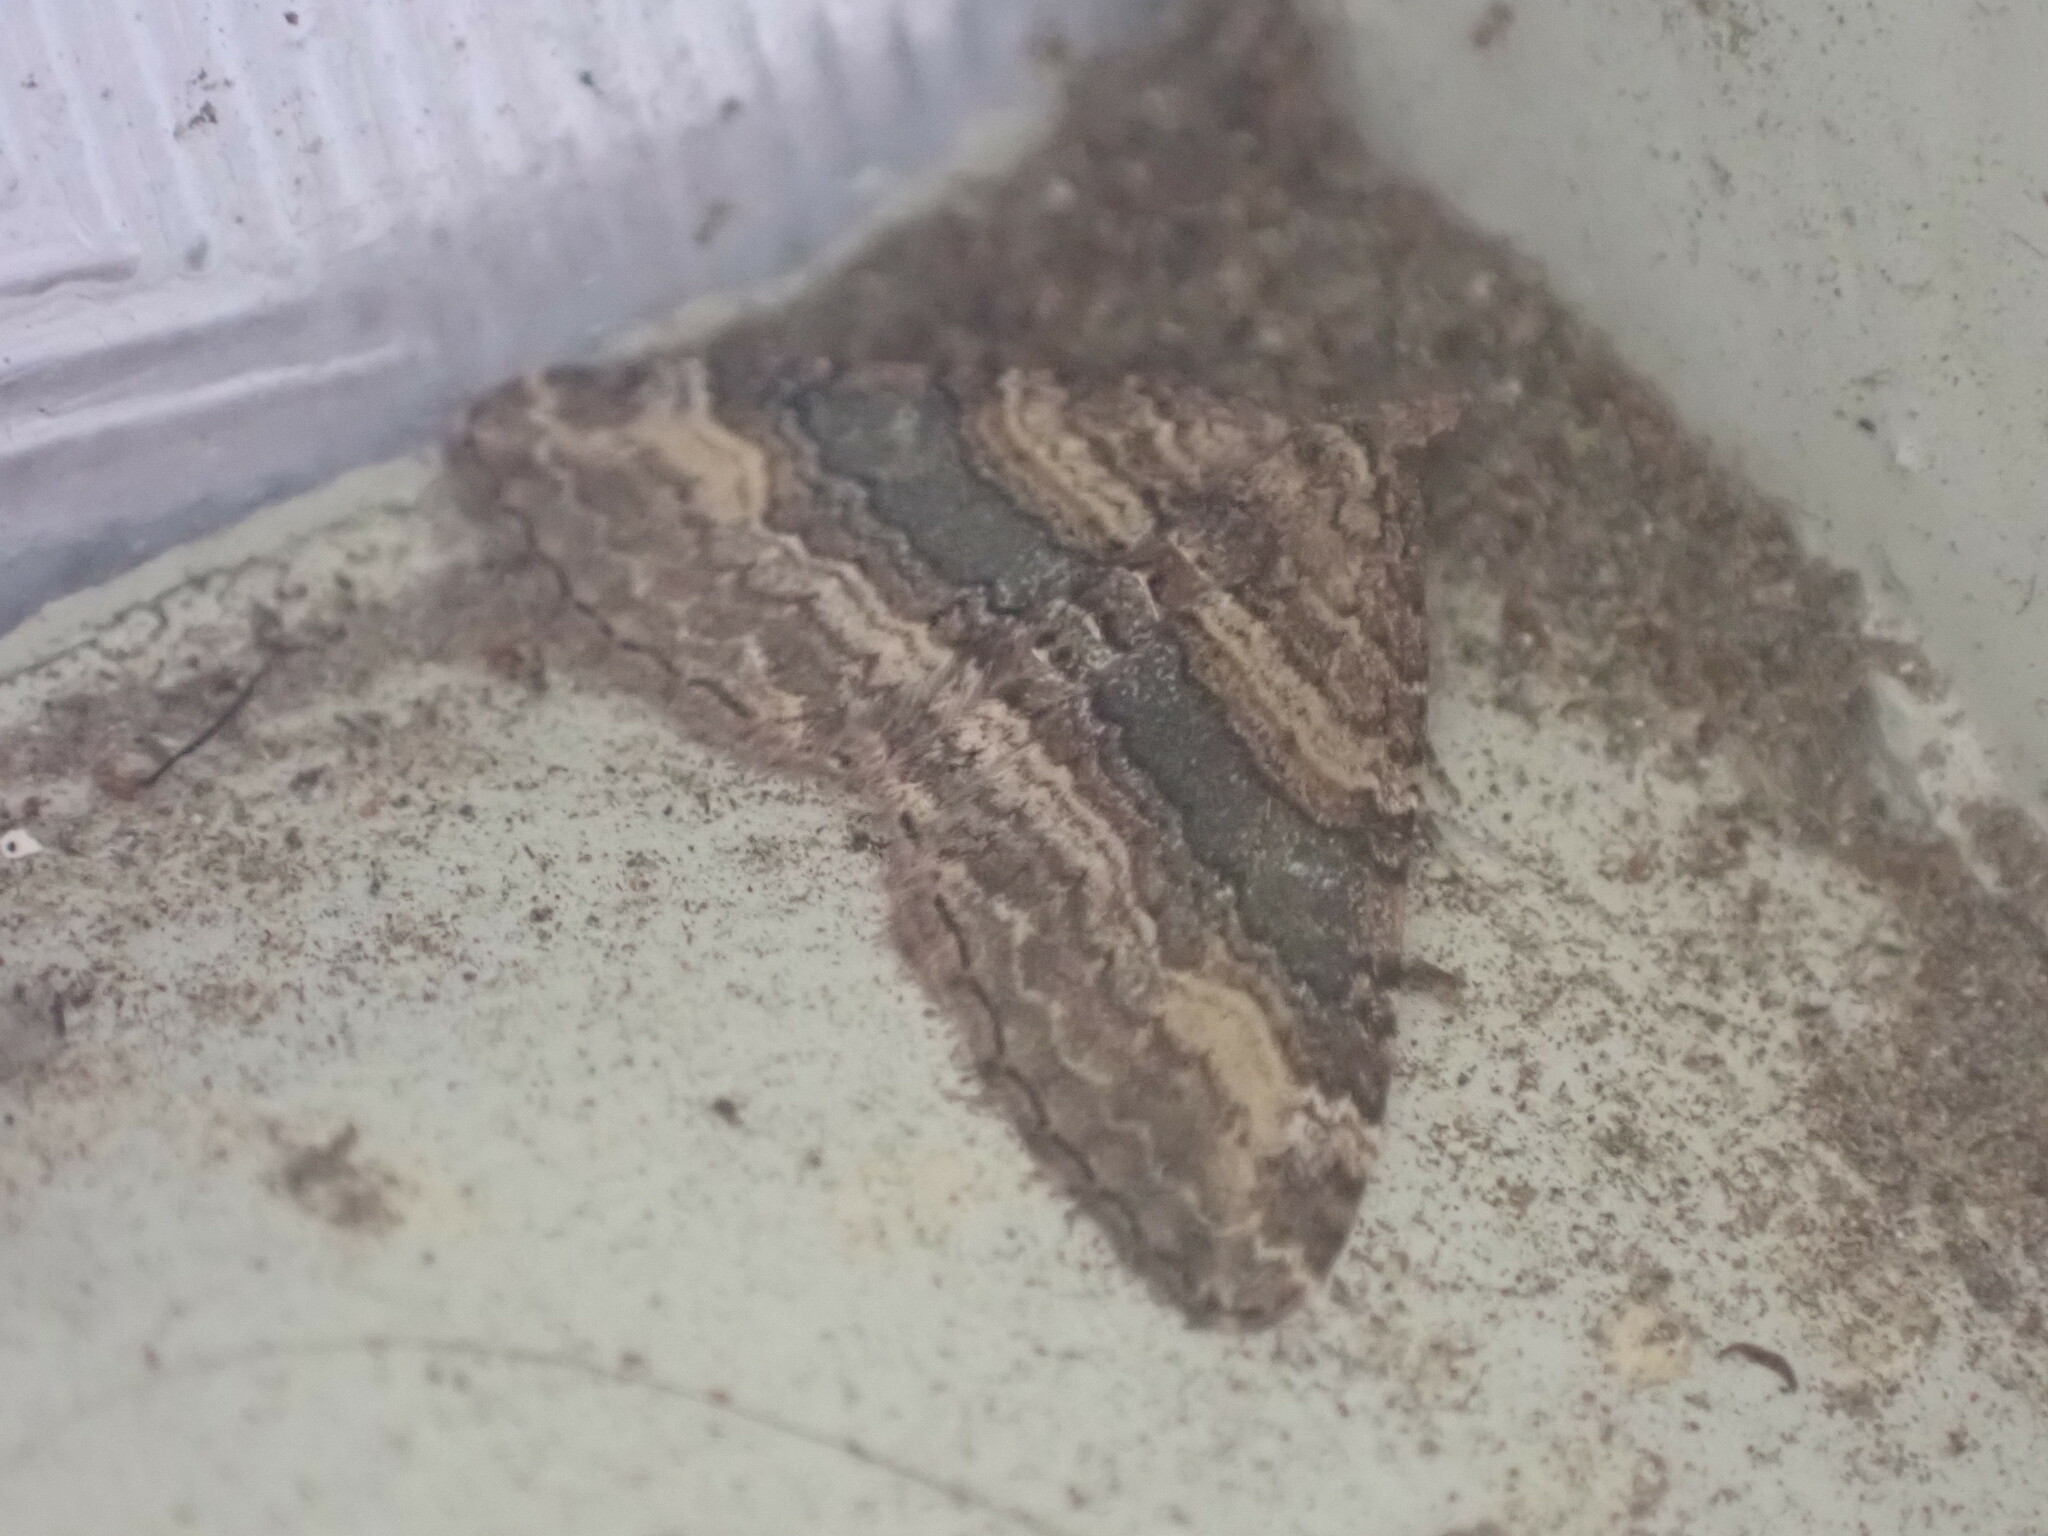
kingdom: Animalia
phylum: Arthropoda
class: Insecta
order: Lepidoptera
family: Geometridae
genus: Epyaxa
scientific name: Epyaxa lucidata
